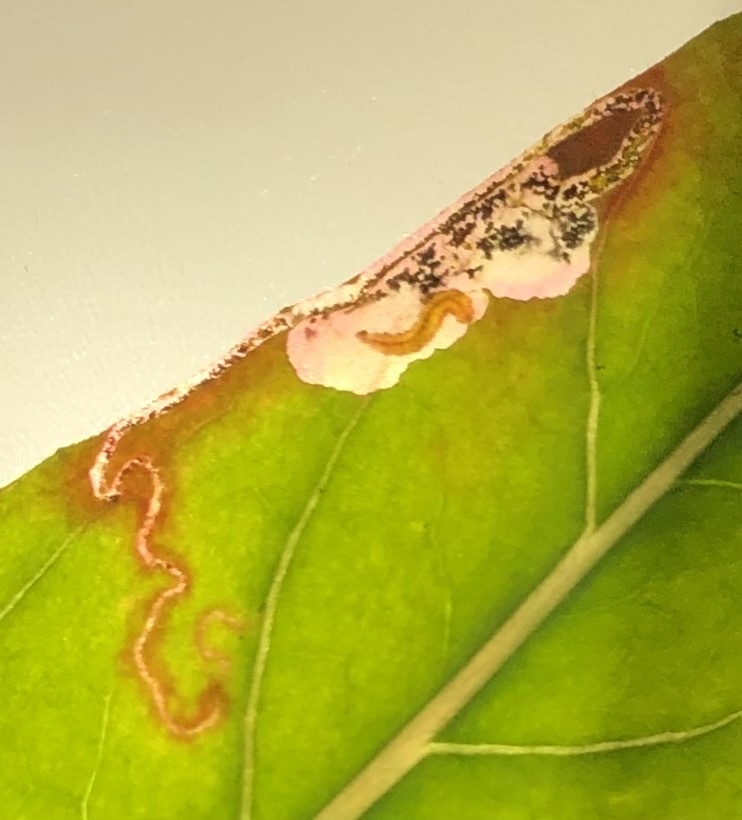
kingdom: Animalia
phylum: Arthropoda
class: Insecta
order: Lepidoptera
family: Momphidae
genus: Mompha
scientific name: Mompha argentimaculella
